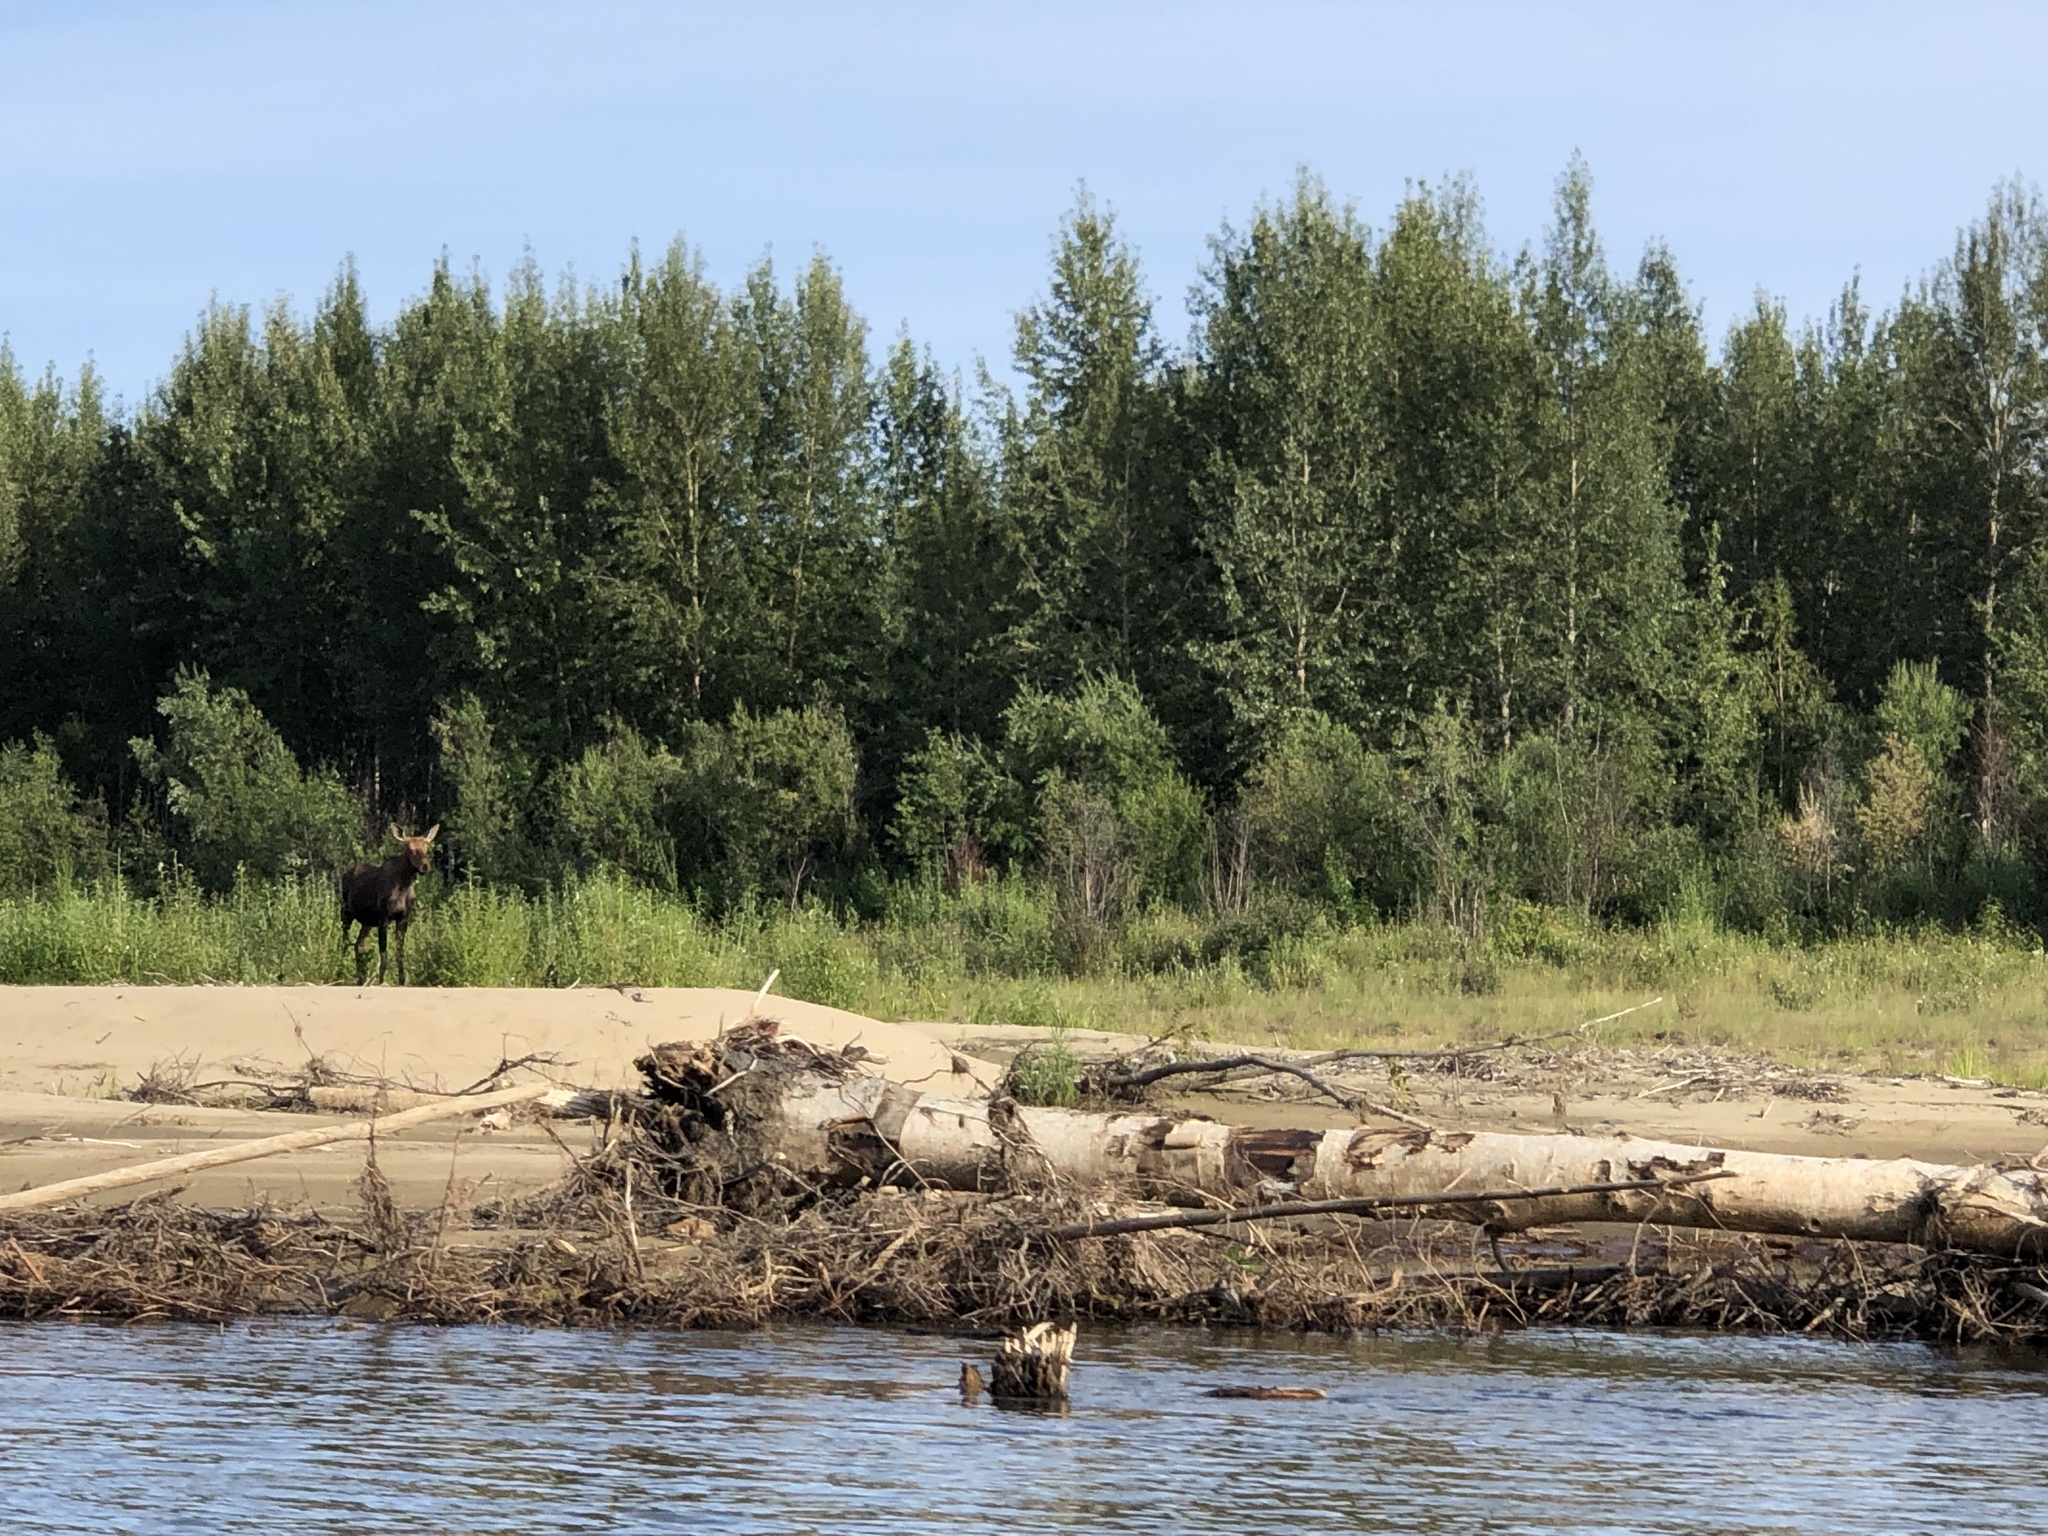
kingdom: Animalia
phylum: Chordata
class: Mammalia
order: Artiodactyla
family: Cervidae
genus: Alces
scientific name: Alces alces
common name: Moose
